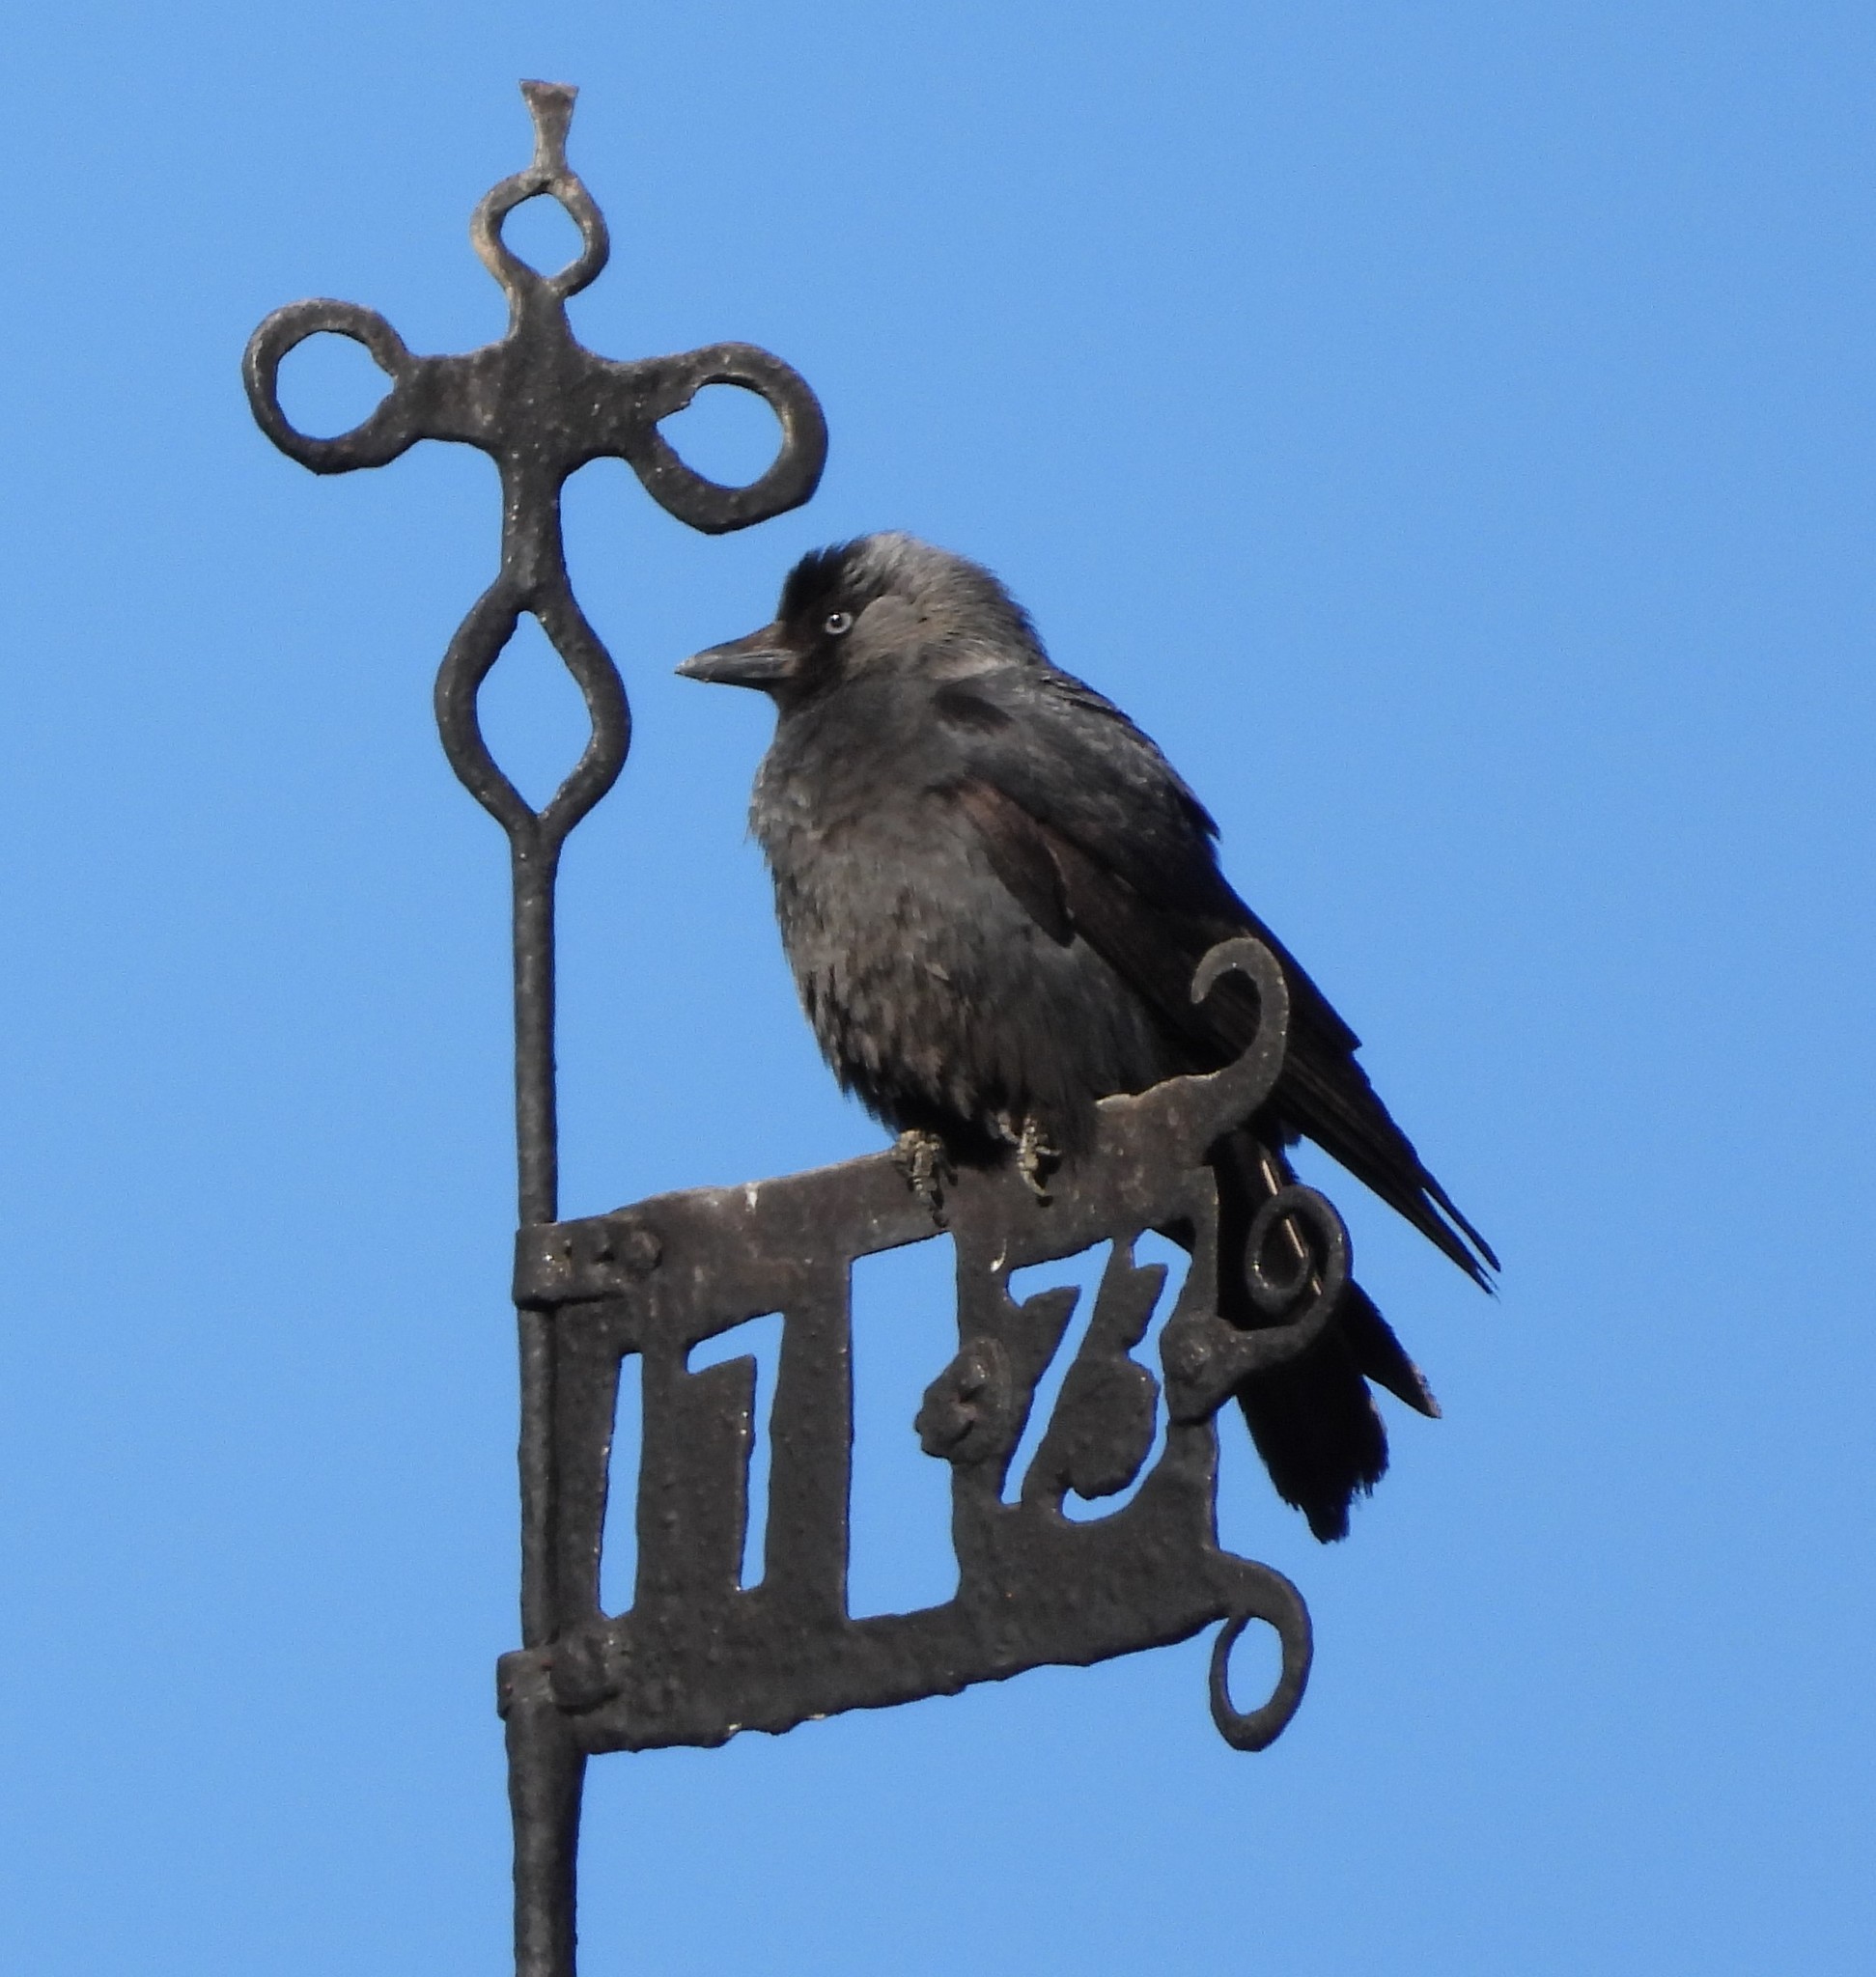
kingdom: Animalia
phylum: Chordata
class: Aves
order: Passeriformes
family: Corvidae
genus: Coloeus
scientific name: Coloeus monedula
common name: Western jackdaw
